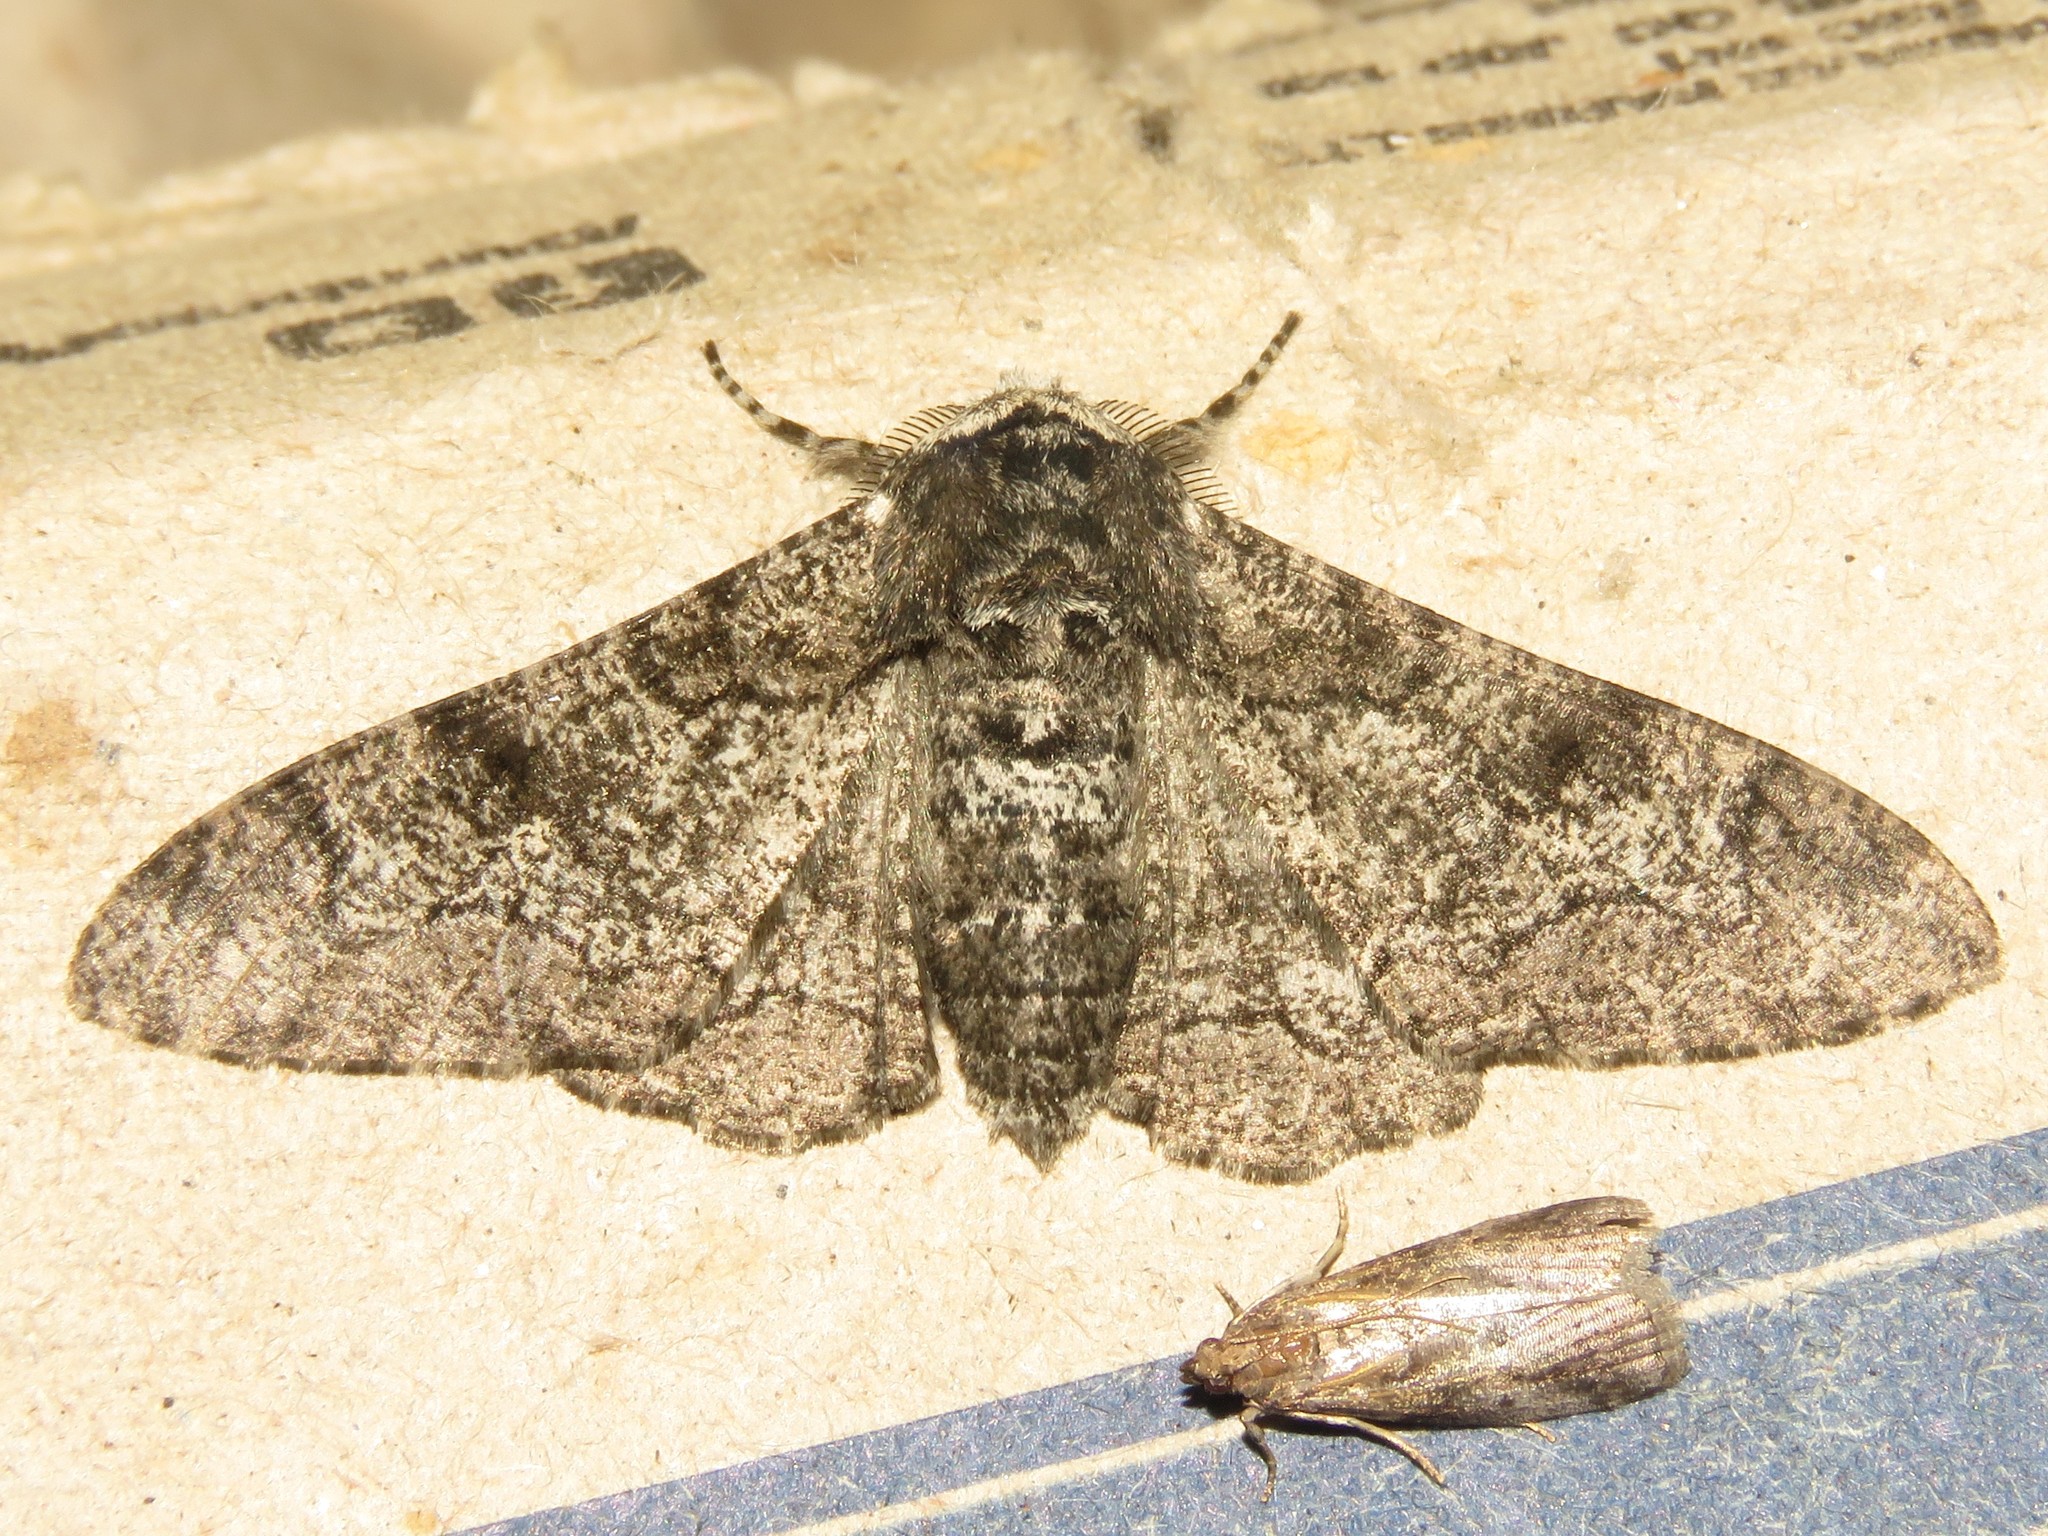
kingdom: Animalia
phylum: Arthropoda
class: Insecta
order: Lepidoptera
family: Geometridae
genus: Biston
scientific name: Biston betularia
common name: Peppered moth
